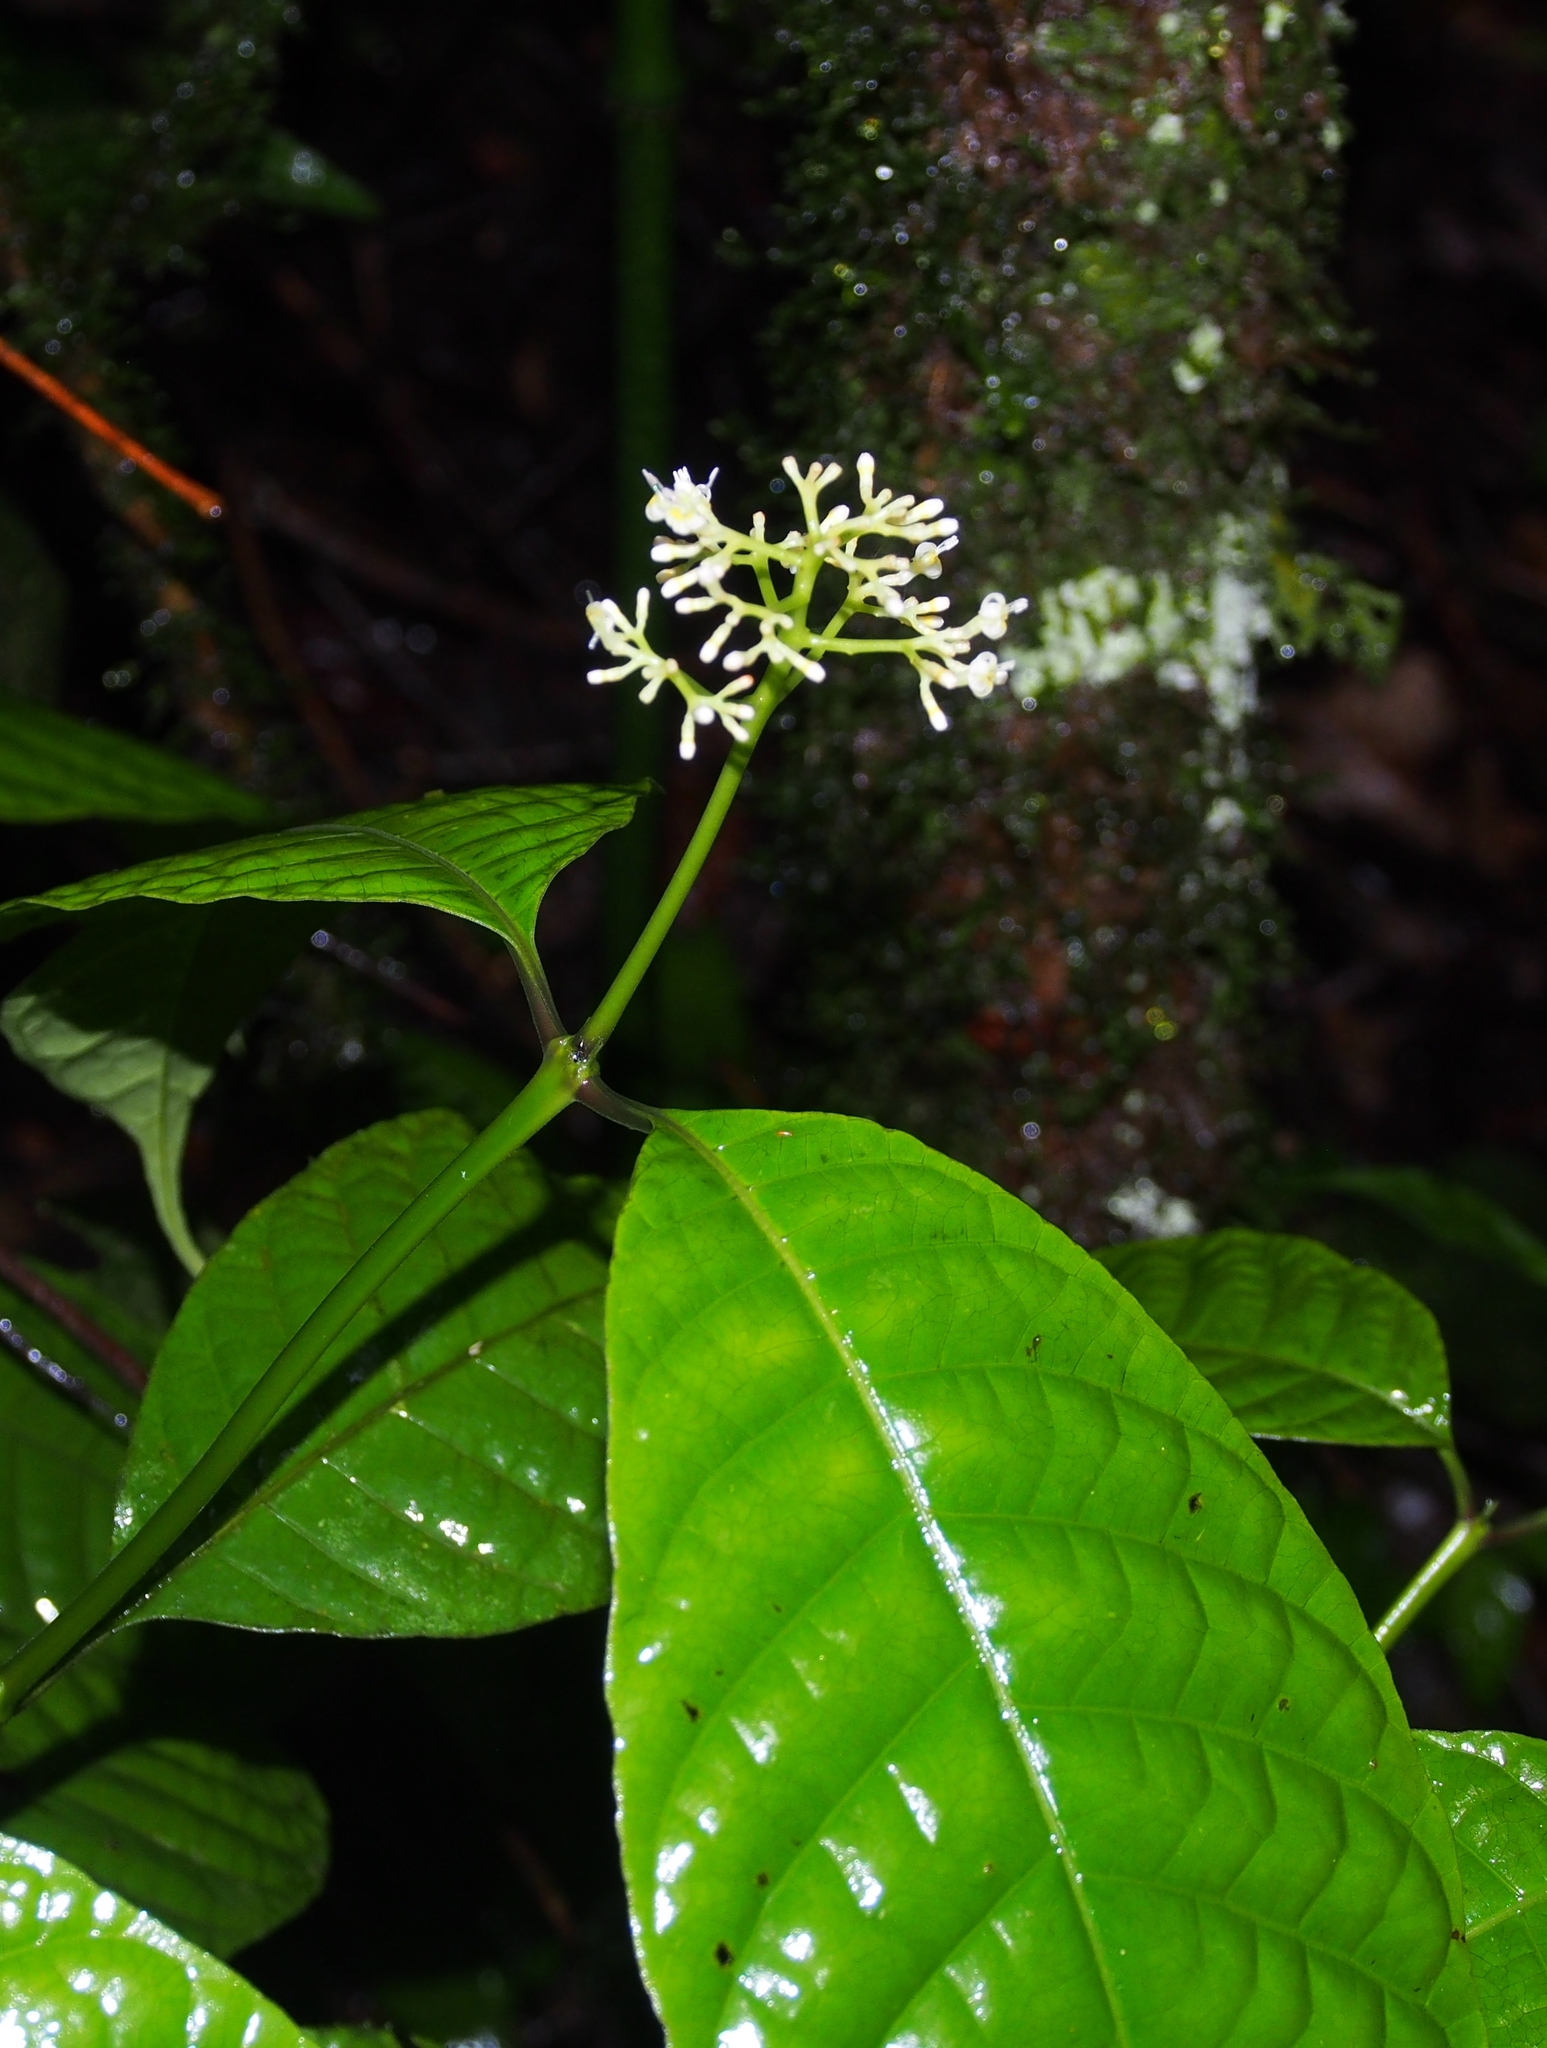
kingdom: Plantae
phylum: Tracheophyta
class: Magnoliopsida
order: Gentianales
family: Rubiaceae
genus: Palicourea
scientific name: Palicourea acuminata
